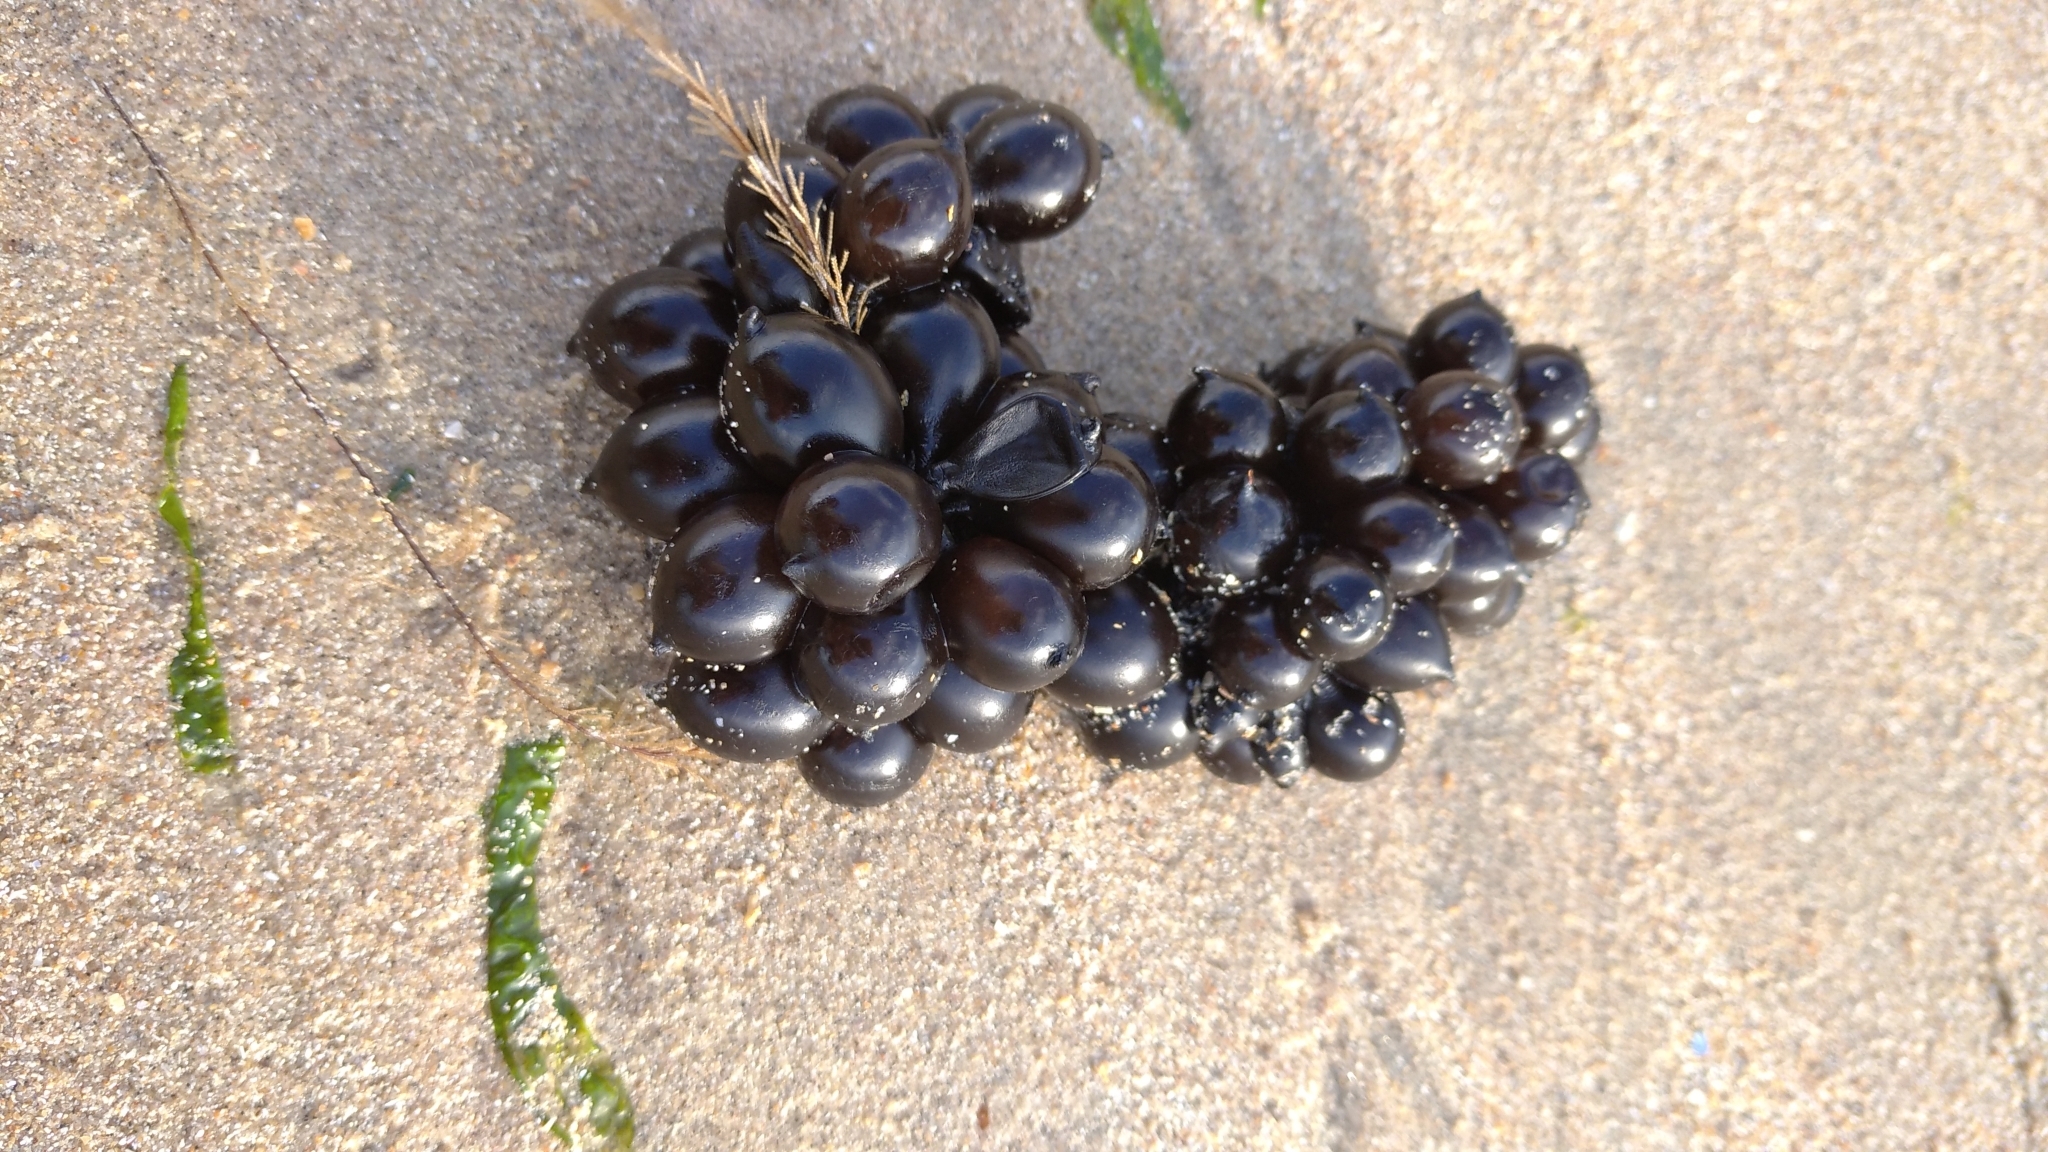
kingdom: Animalia
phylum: Mollusca
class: Cephalopoda
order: Sepiida
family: Sepiidae
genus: Sepia
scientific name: Sepia officinalis
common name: Common cuttlefish
